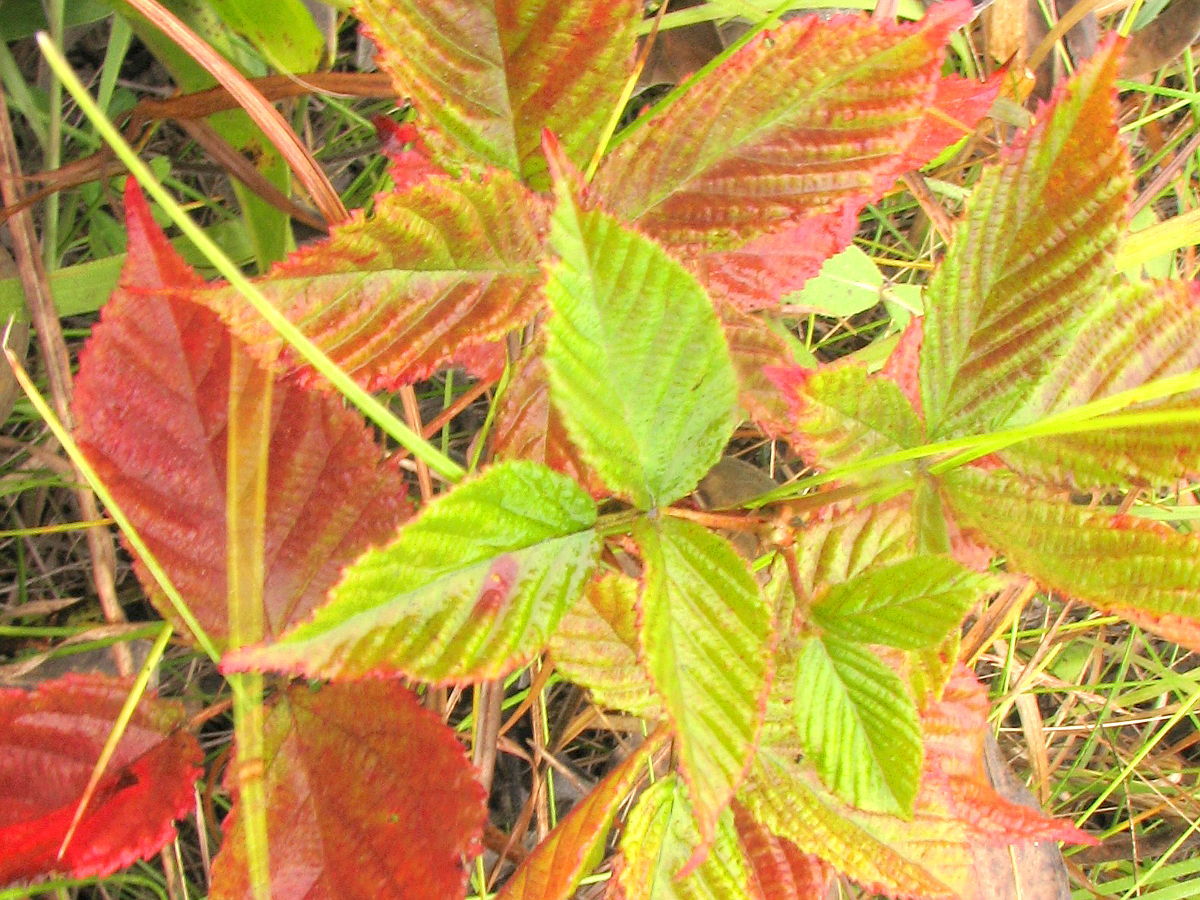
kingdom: Plantae
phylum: Tracheophyta
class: Magnoliopsida
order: Rosales
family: Rosaceae
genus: Rubus
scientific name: Rubus allegheniensis
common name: Allegheny blackberry
